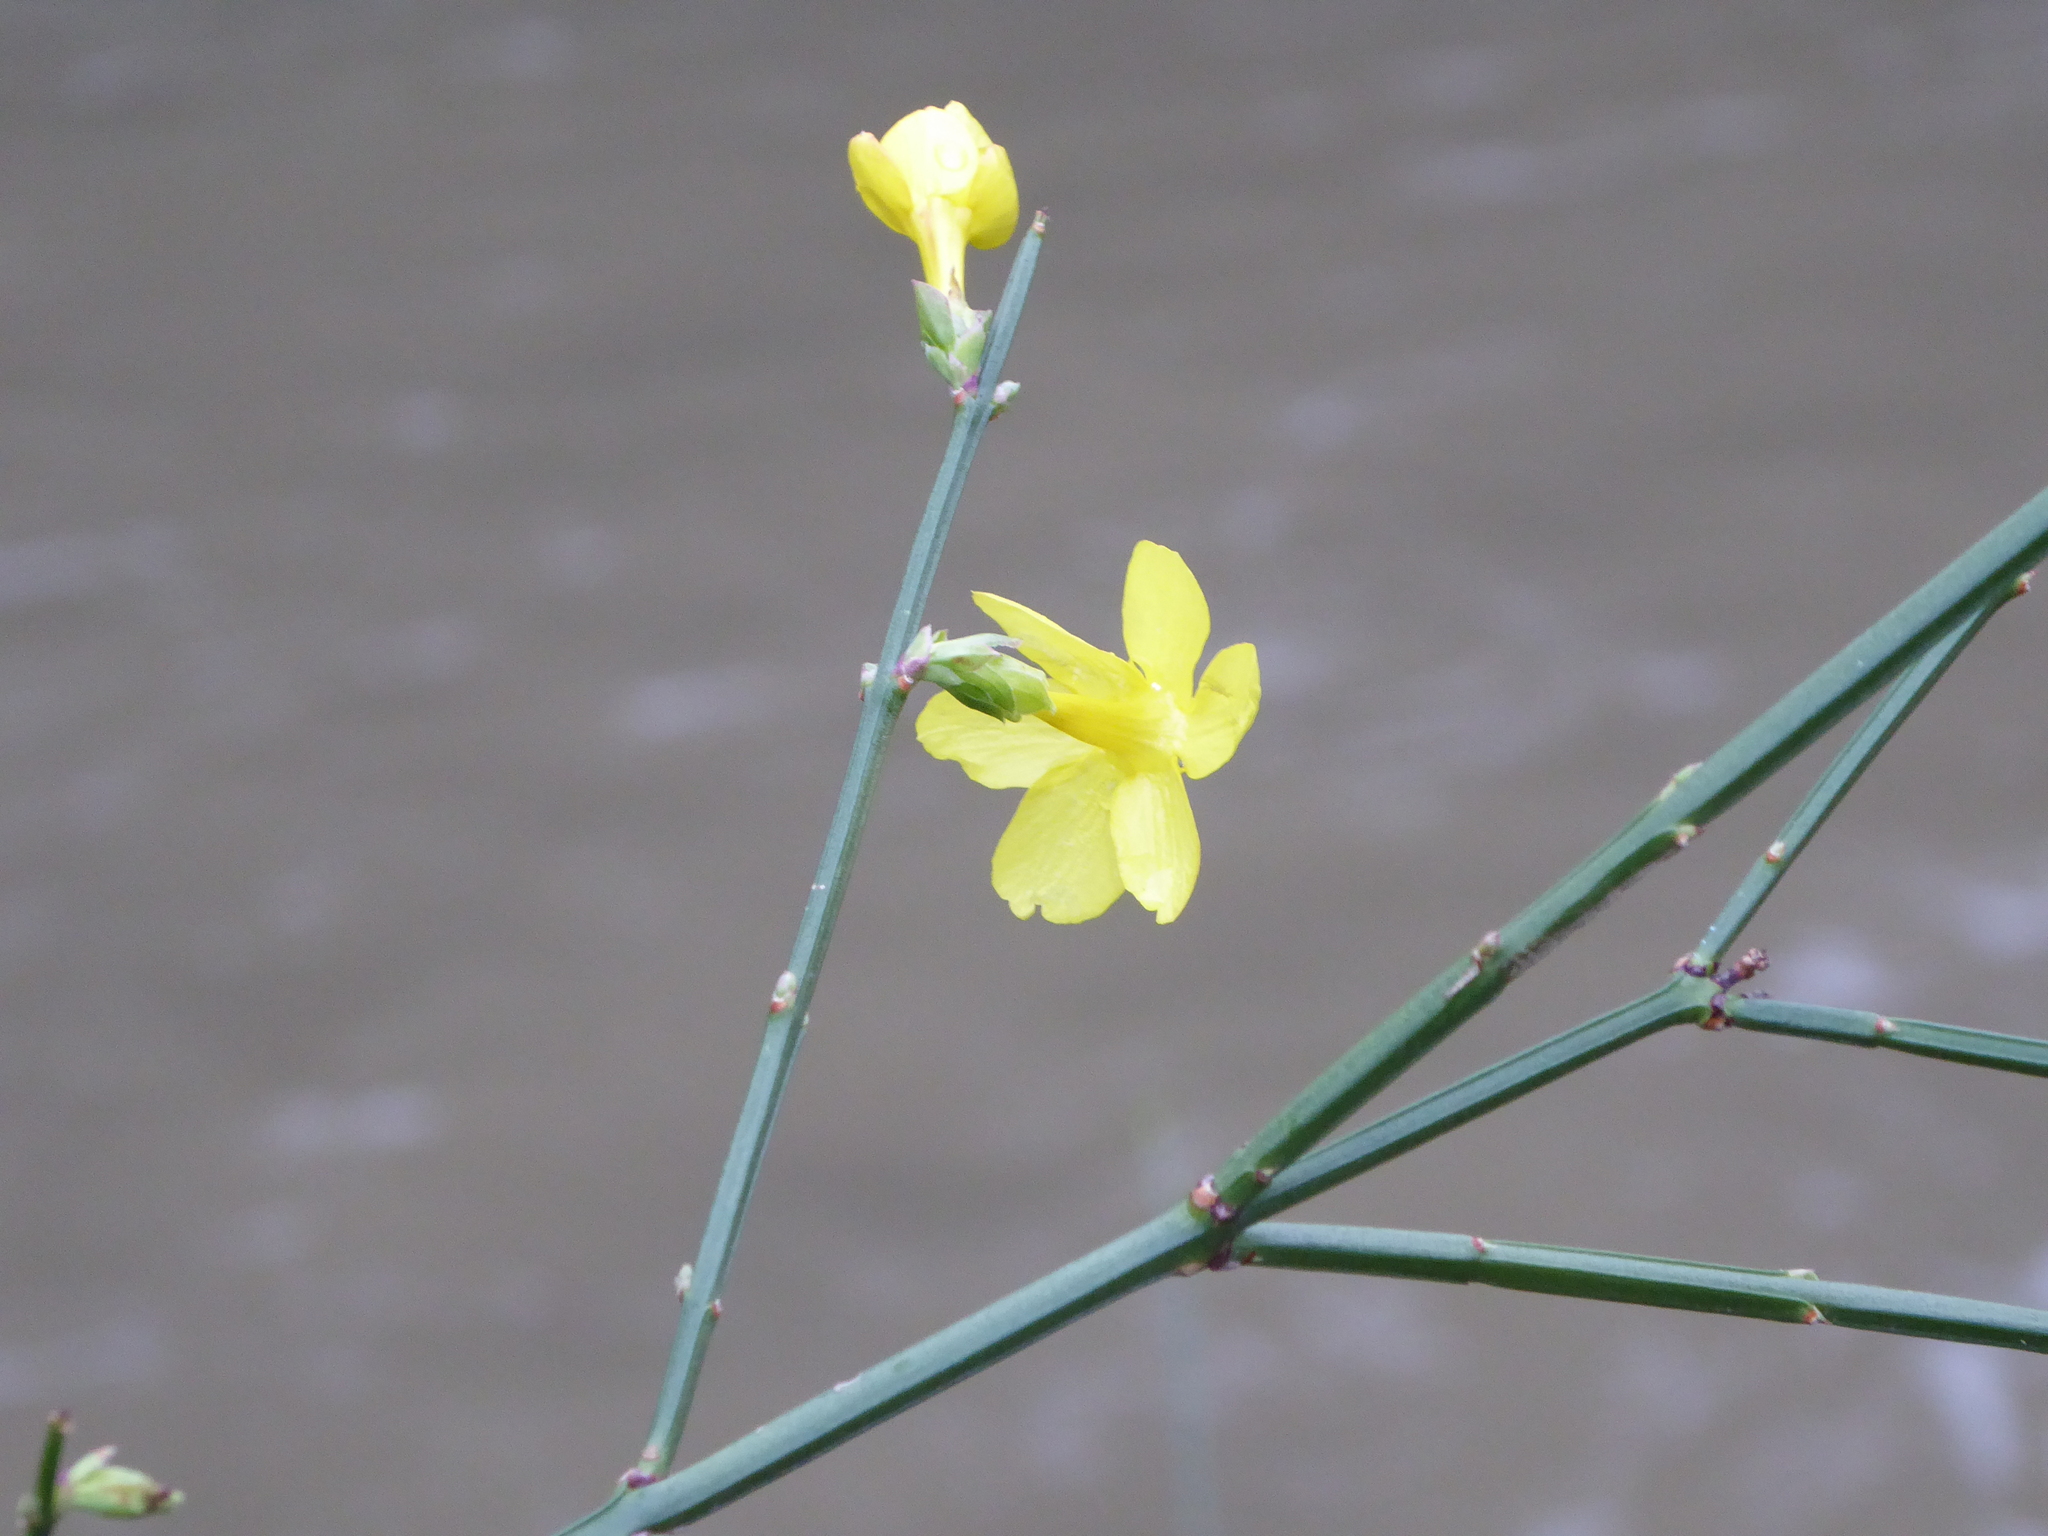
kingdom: Plantae
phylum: Tracheophyta
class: Magnoliopsida
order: Lamiales
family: Oleaceae
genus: Jasminum
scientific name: Jasminum nudiflorum
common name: Winter jasmine
